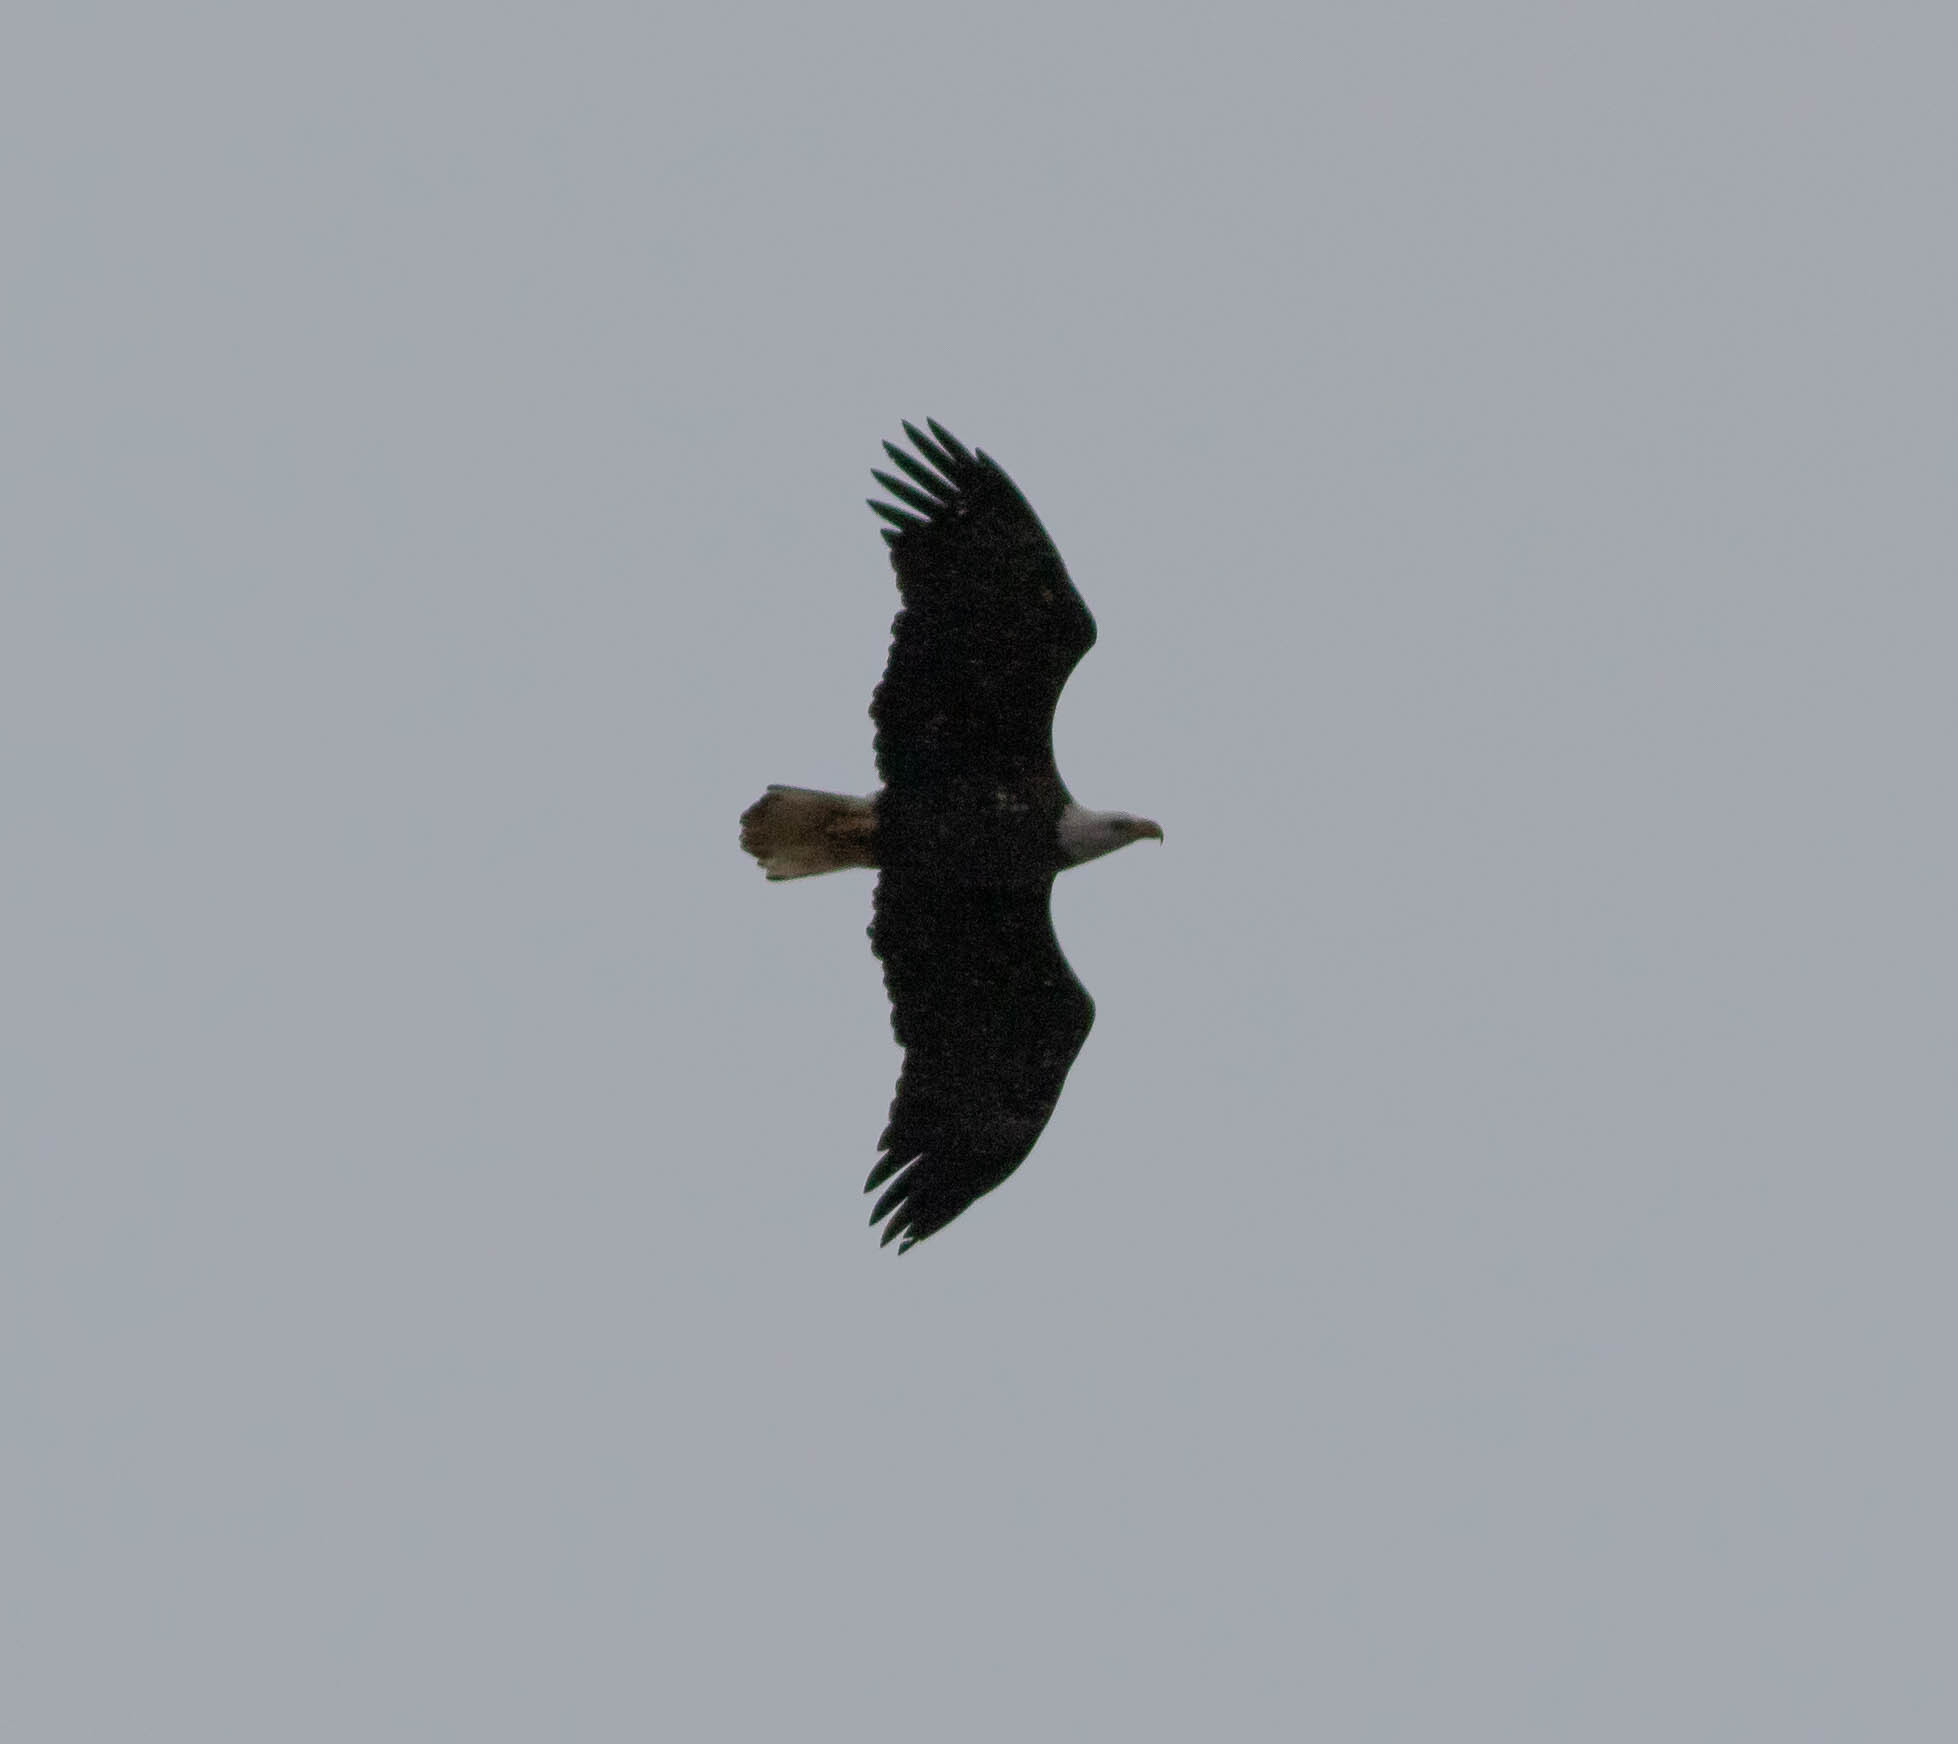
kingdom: Animalia
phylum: Chordata
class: Aves
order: Accipitriformes
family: Accipitridae
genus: Haliaeetus
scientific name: Haliaeetus leucocephalus
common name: Bald eagle
